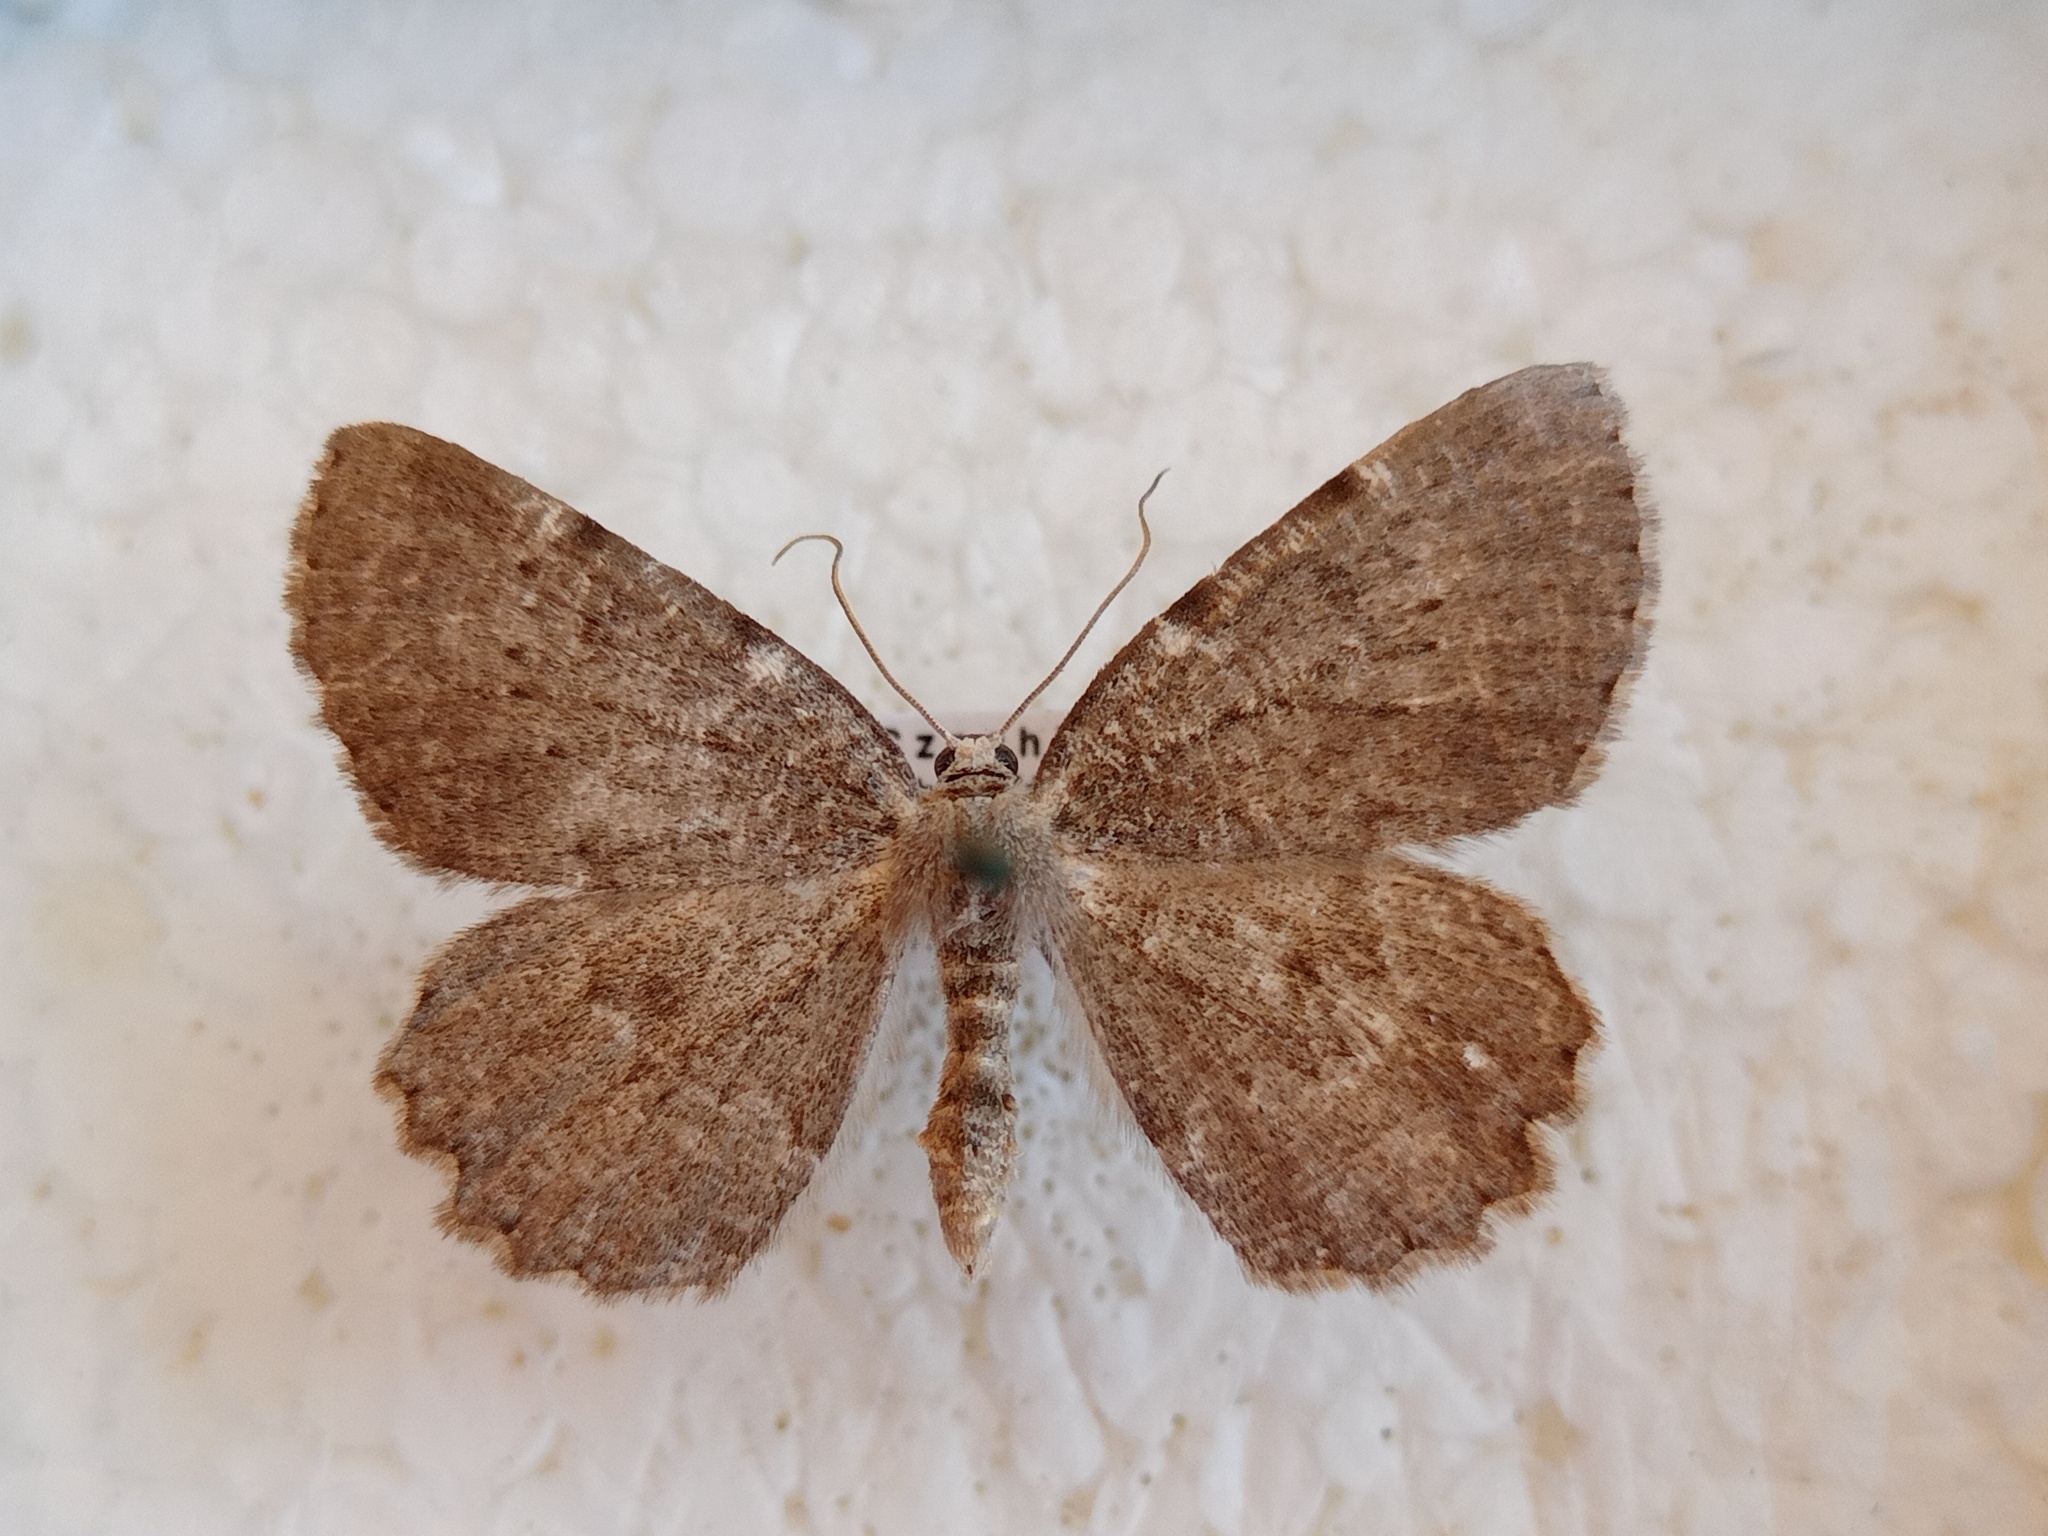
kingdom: Animalia
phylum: Arthropoda
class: Insecta
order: Lepidoptera
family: Geometridae
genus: Charissa
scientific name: Charissa pullata
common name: Limestone annulet
